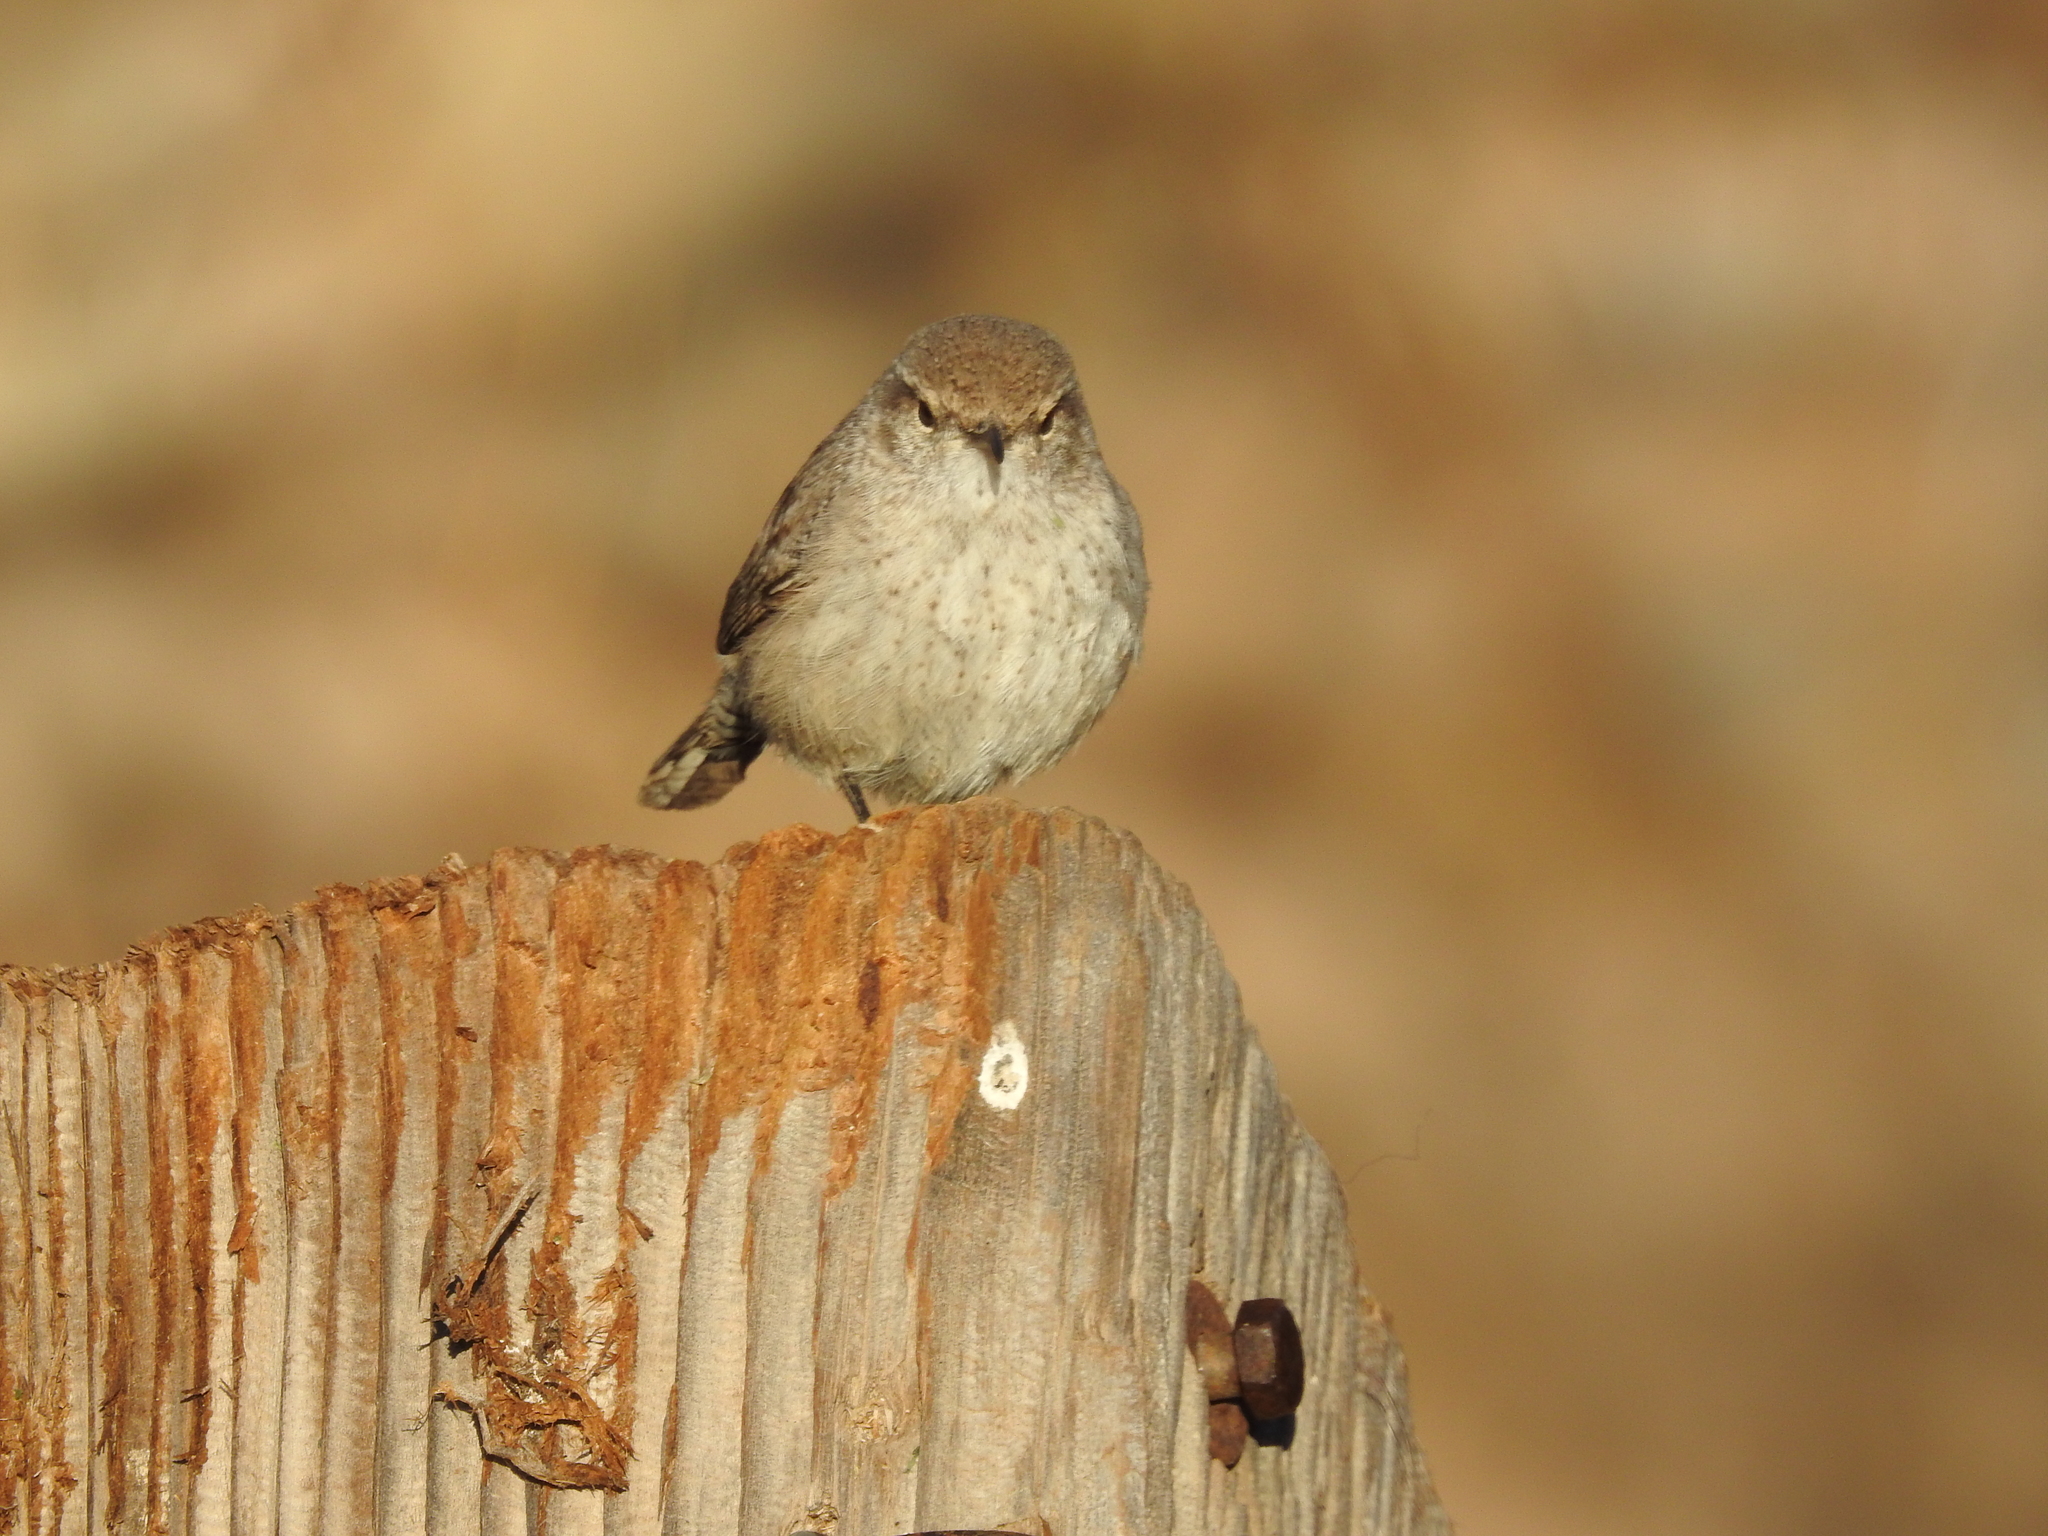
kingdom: Animalia
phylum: Chordata
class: Aves
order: Passeriformes
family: Troglodytidae
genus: Salpinctes
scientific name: Salpinctes obsoletus
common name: Rock wren
